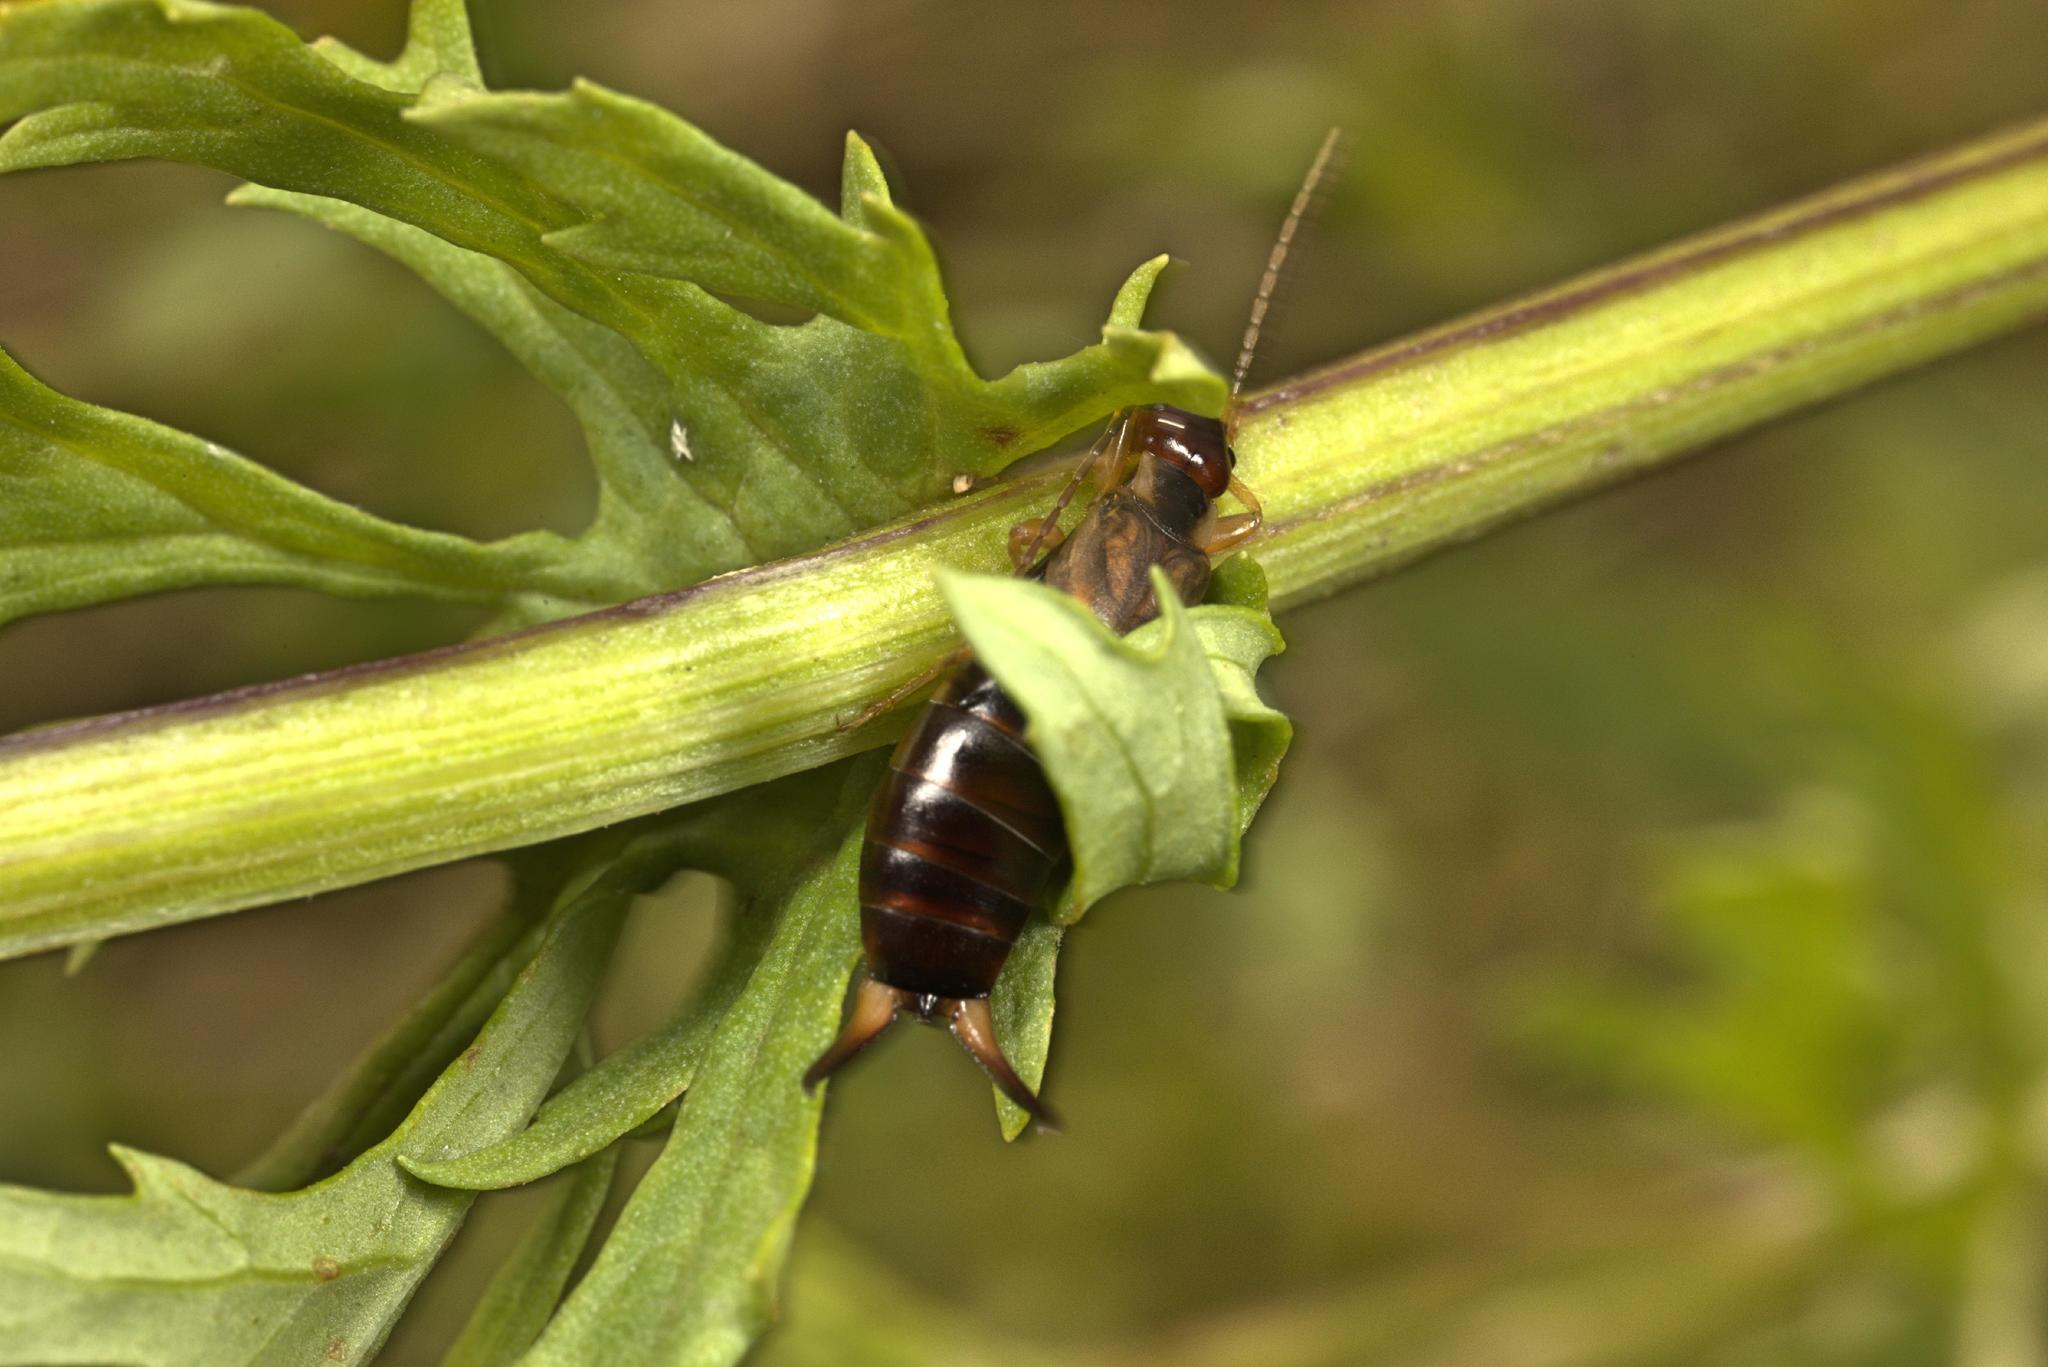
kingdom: Animalia
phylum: Arthropoda
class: Insecta
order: Dermaptera
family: Forficulidae
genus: Forficula
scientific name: Forficula
